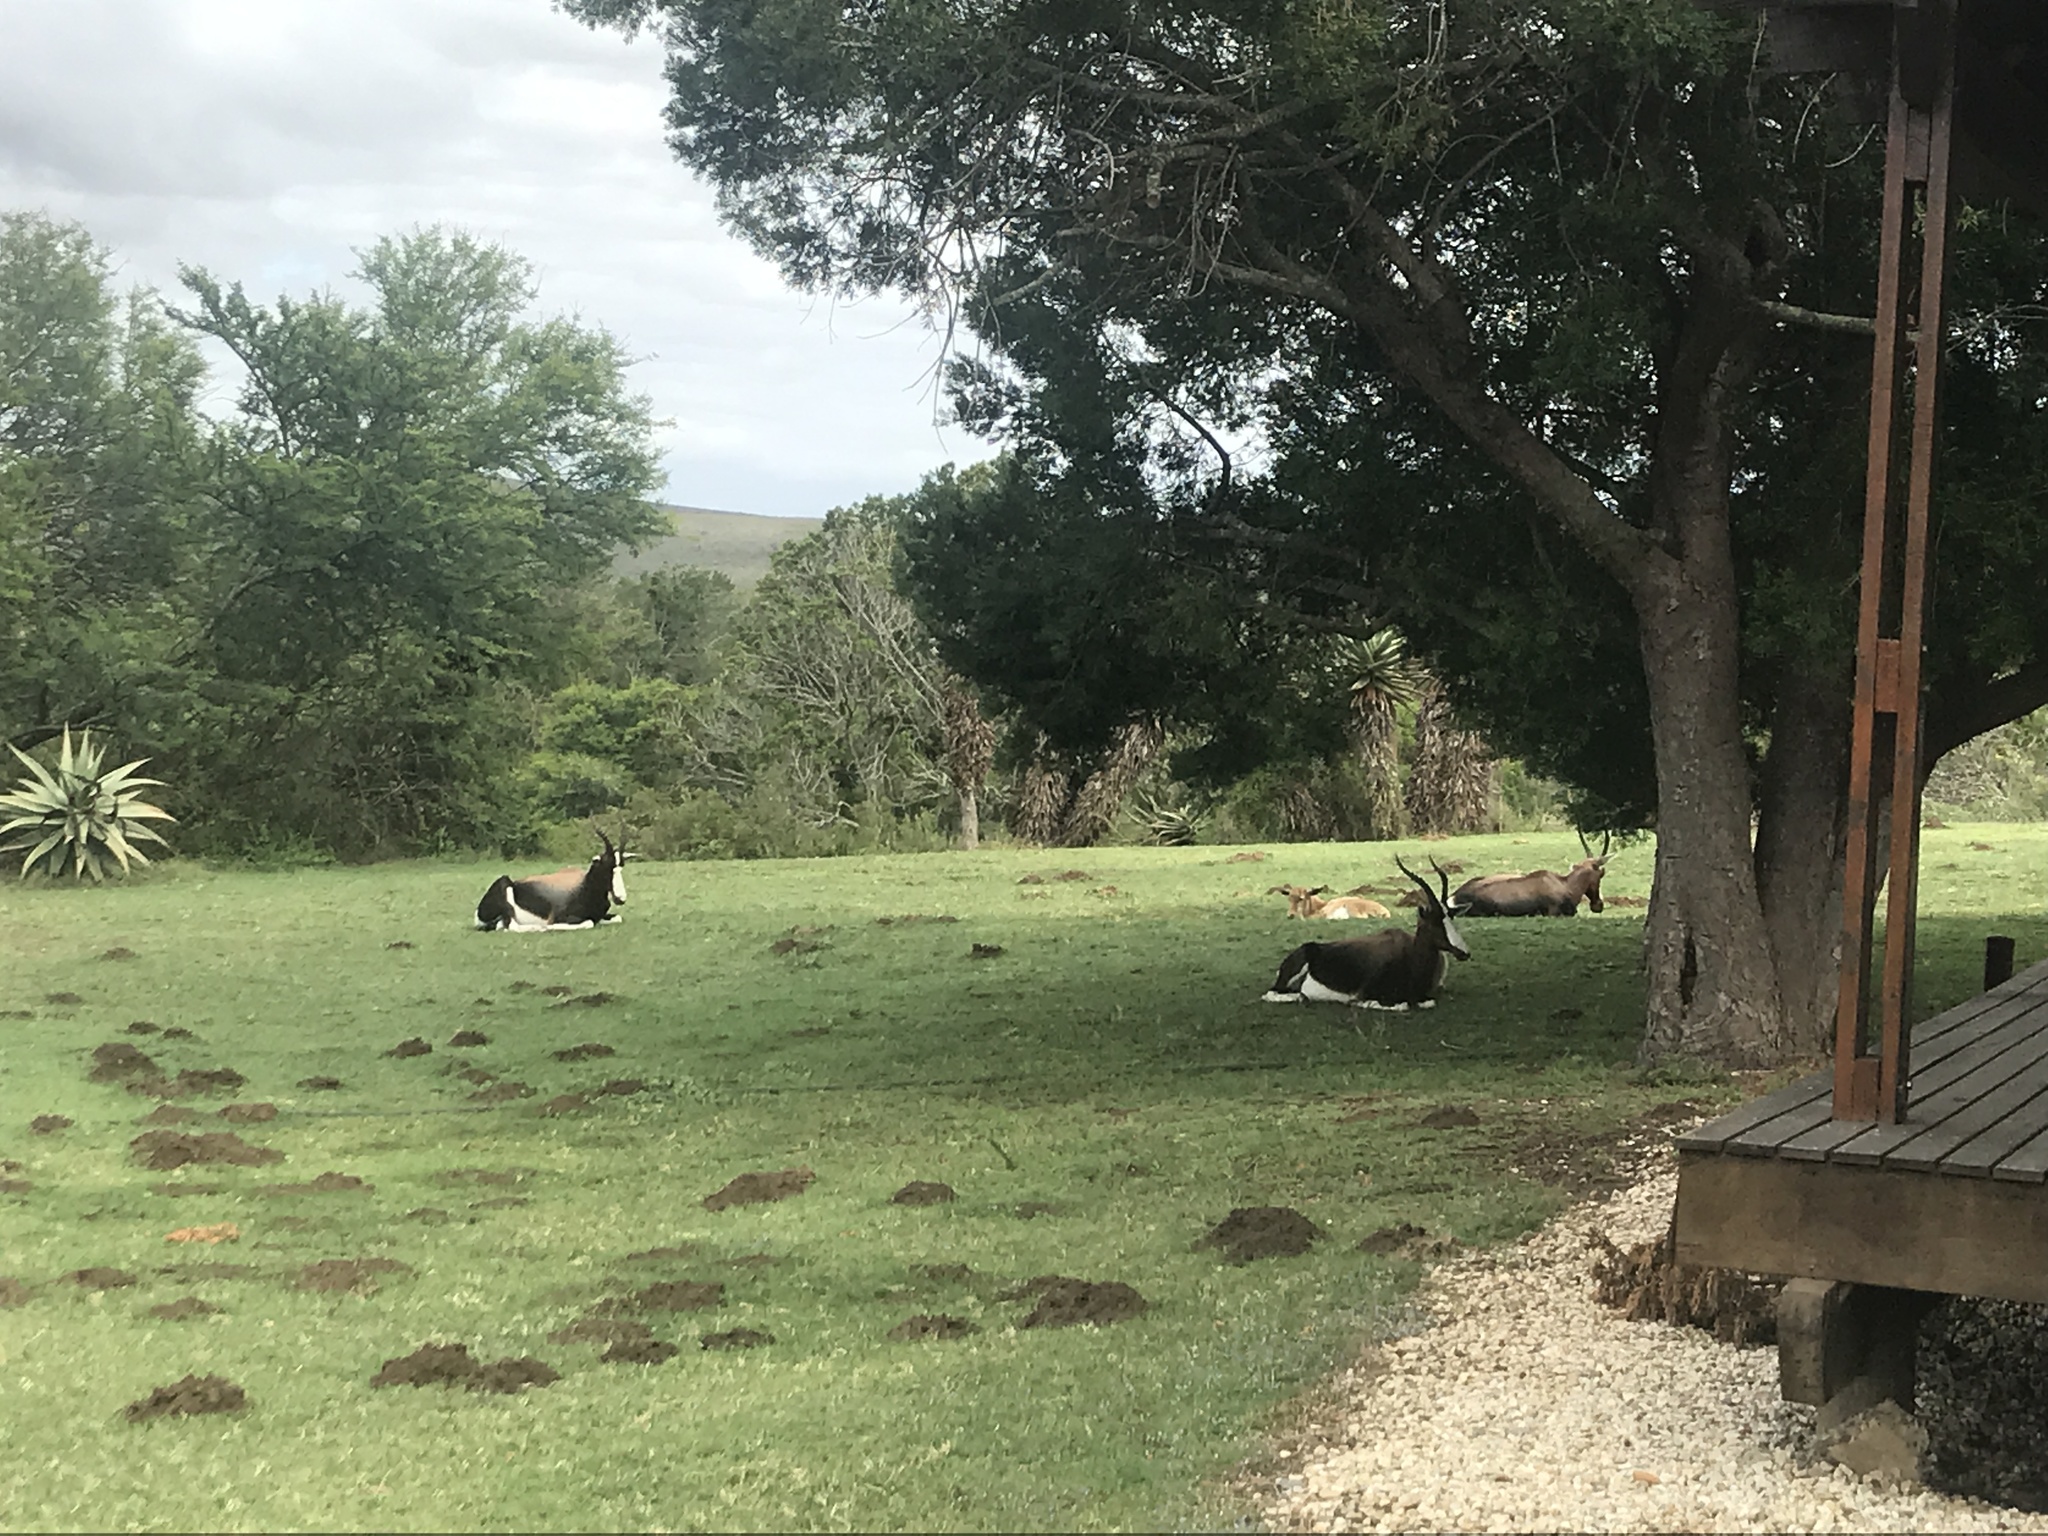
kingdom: Animalia
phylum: Chordata
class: Mammalia
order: Artiodactyla
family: Bovidae
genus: Damaliscus
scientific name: Damaliscus pygargus
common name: Bontebok
